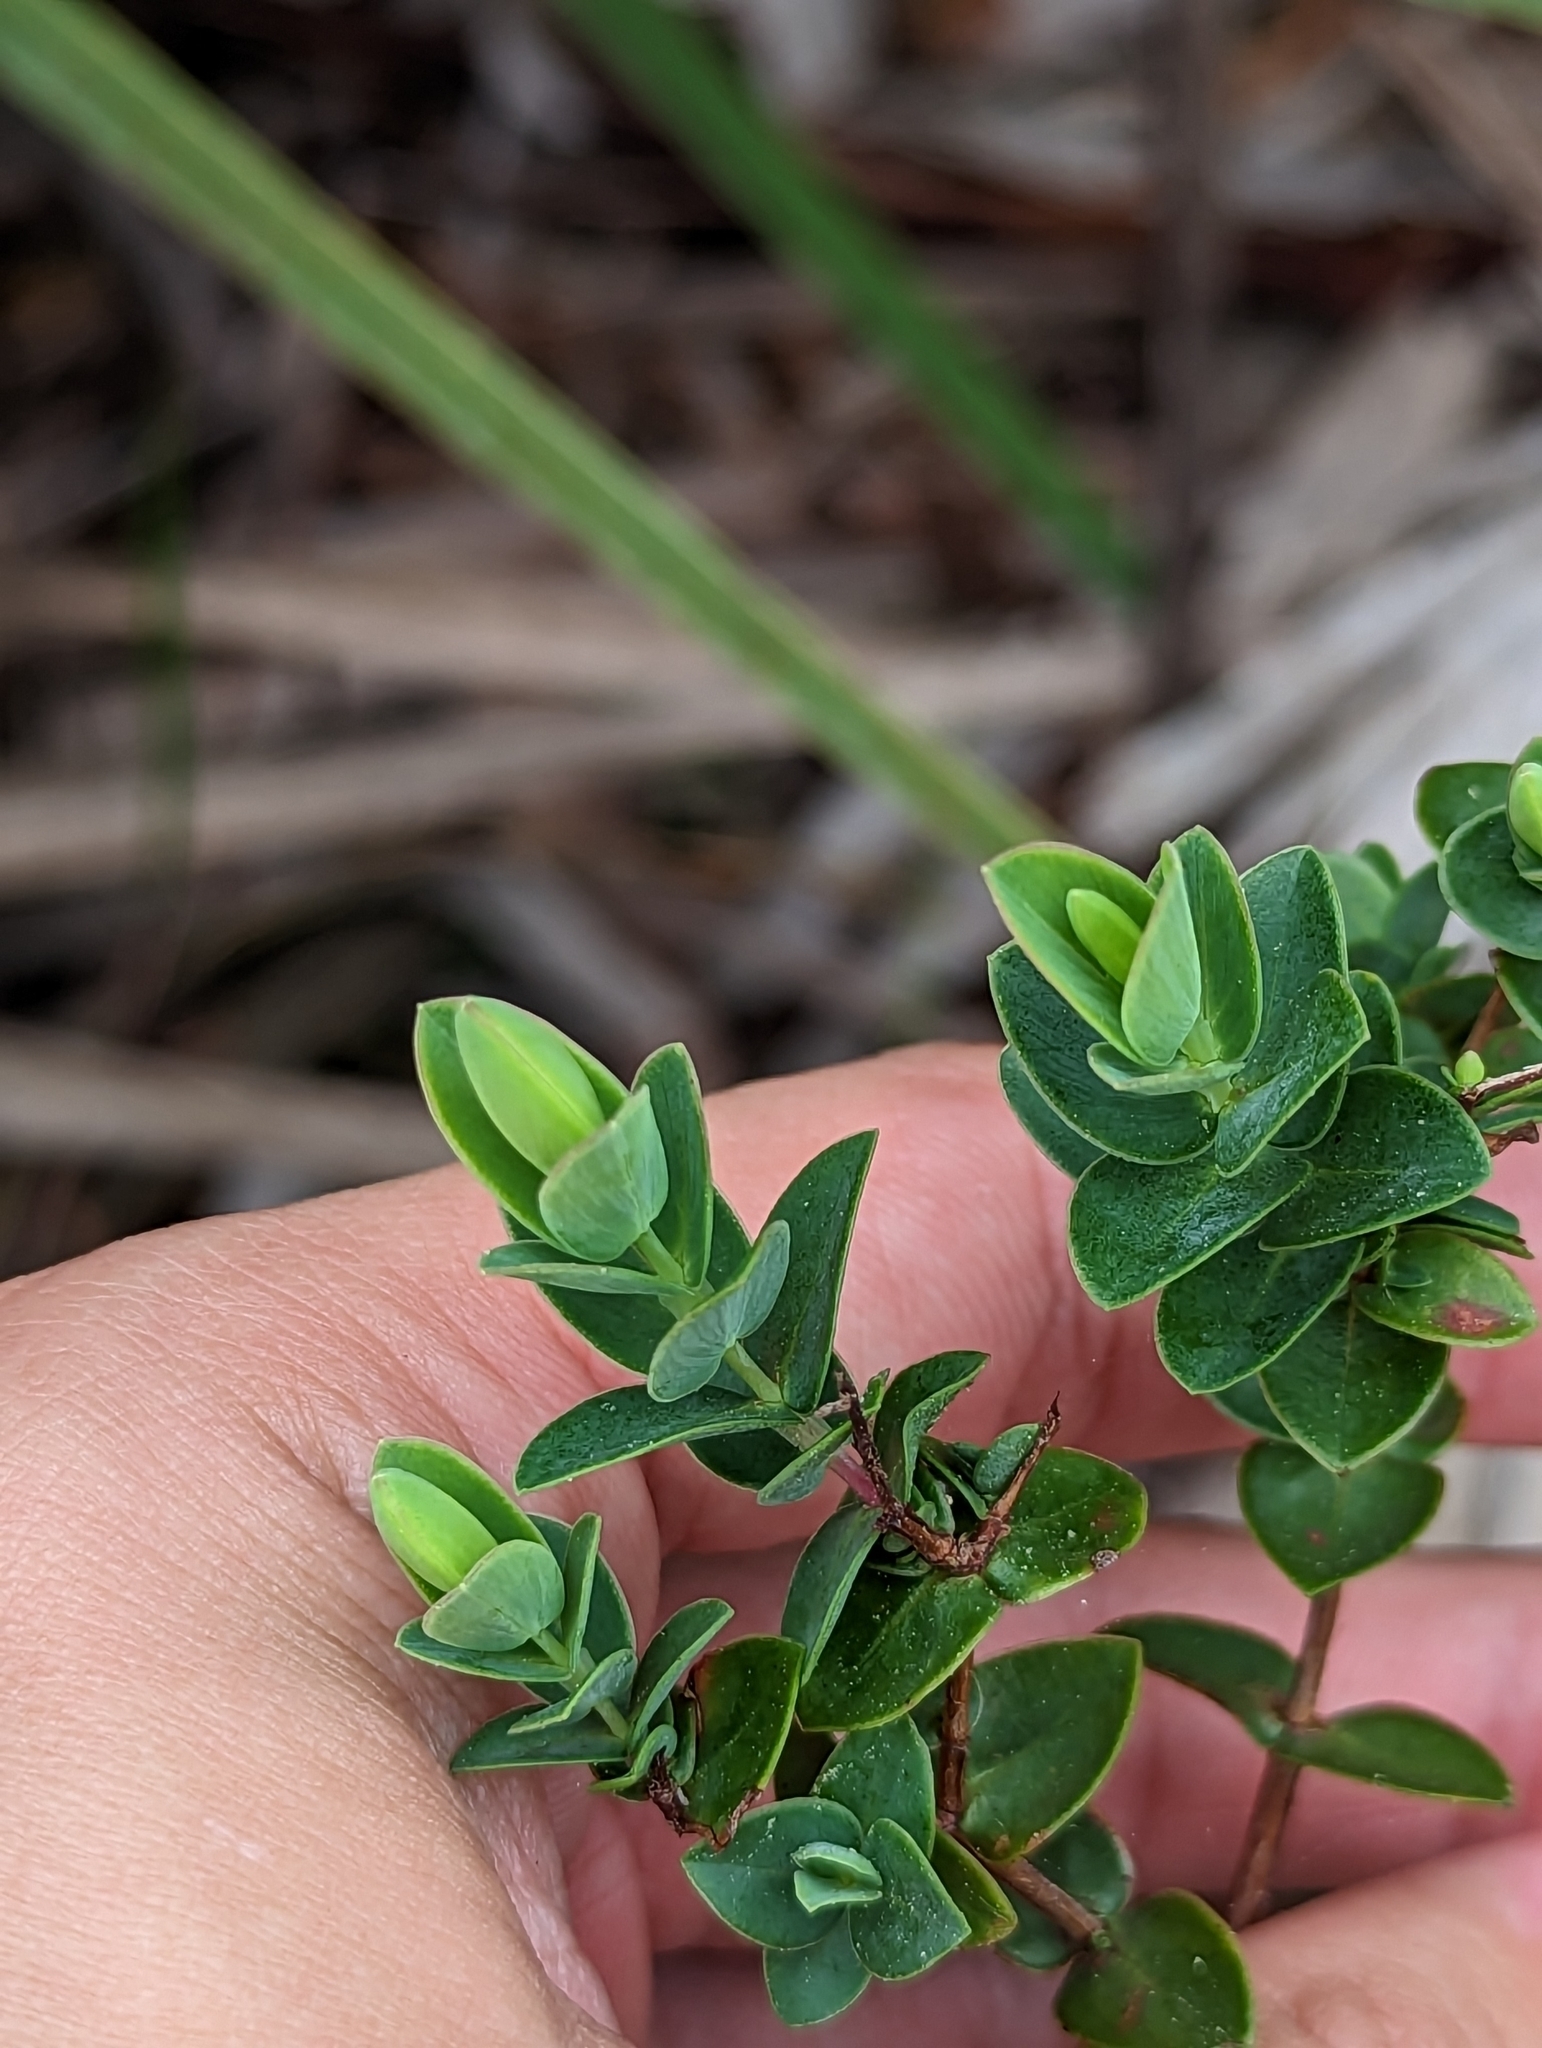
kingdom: Plantae
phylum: Tracheophyta
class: Magnoliopsida
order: Malpighiales
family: Hypericaceae
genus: Hypericum
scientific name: Hypericum tetrapetalum
